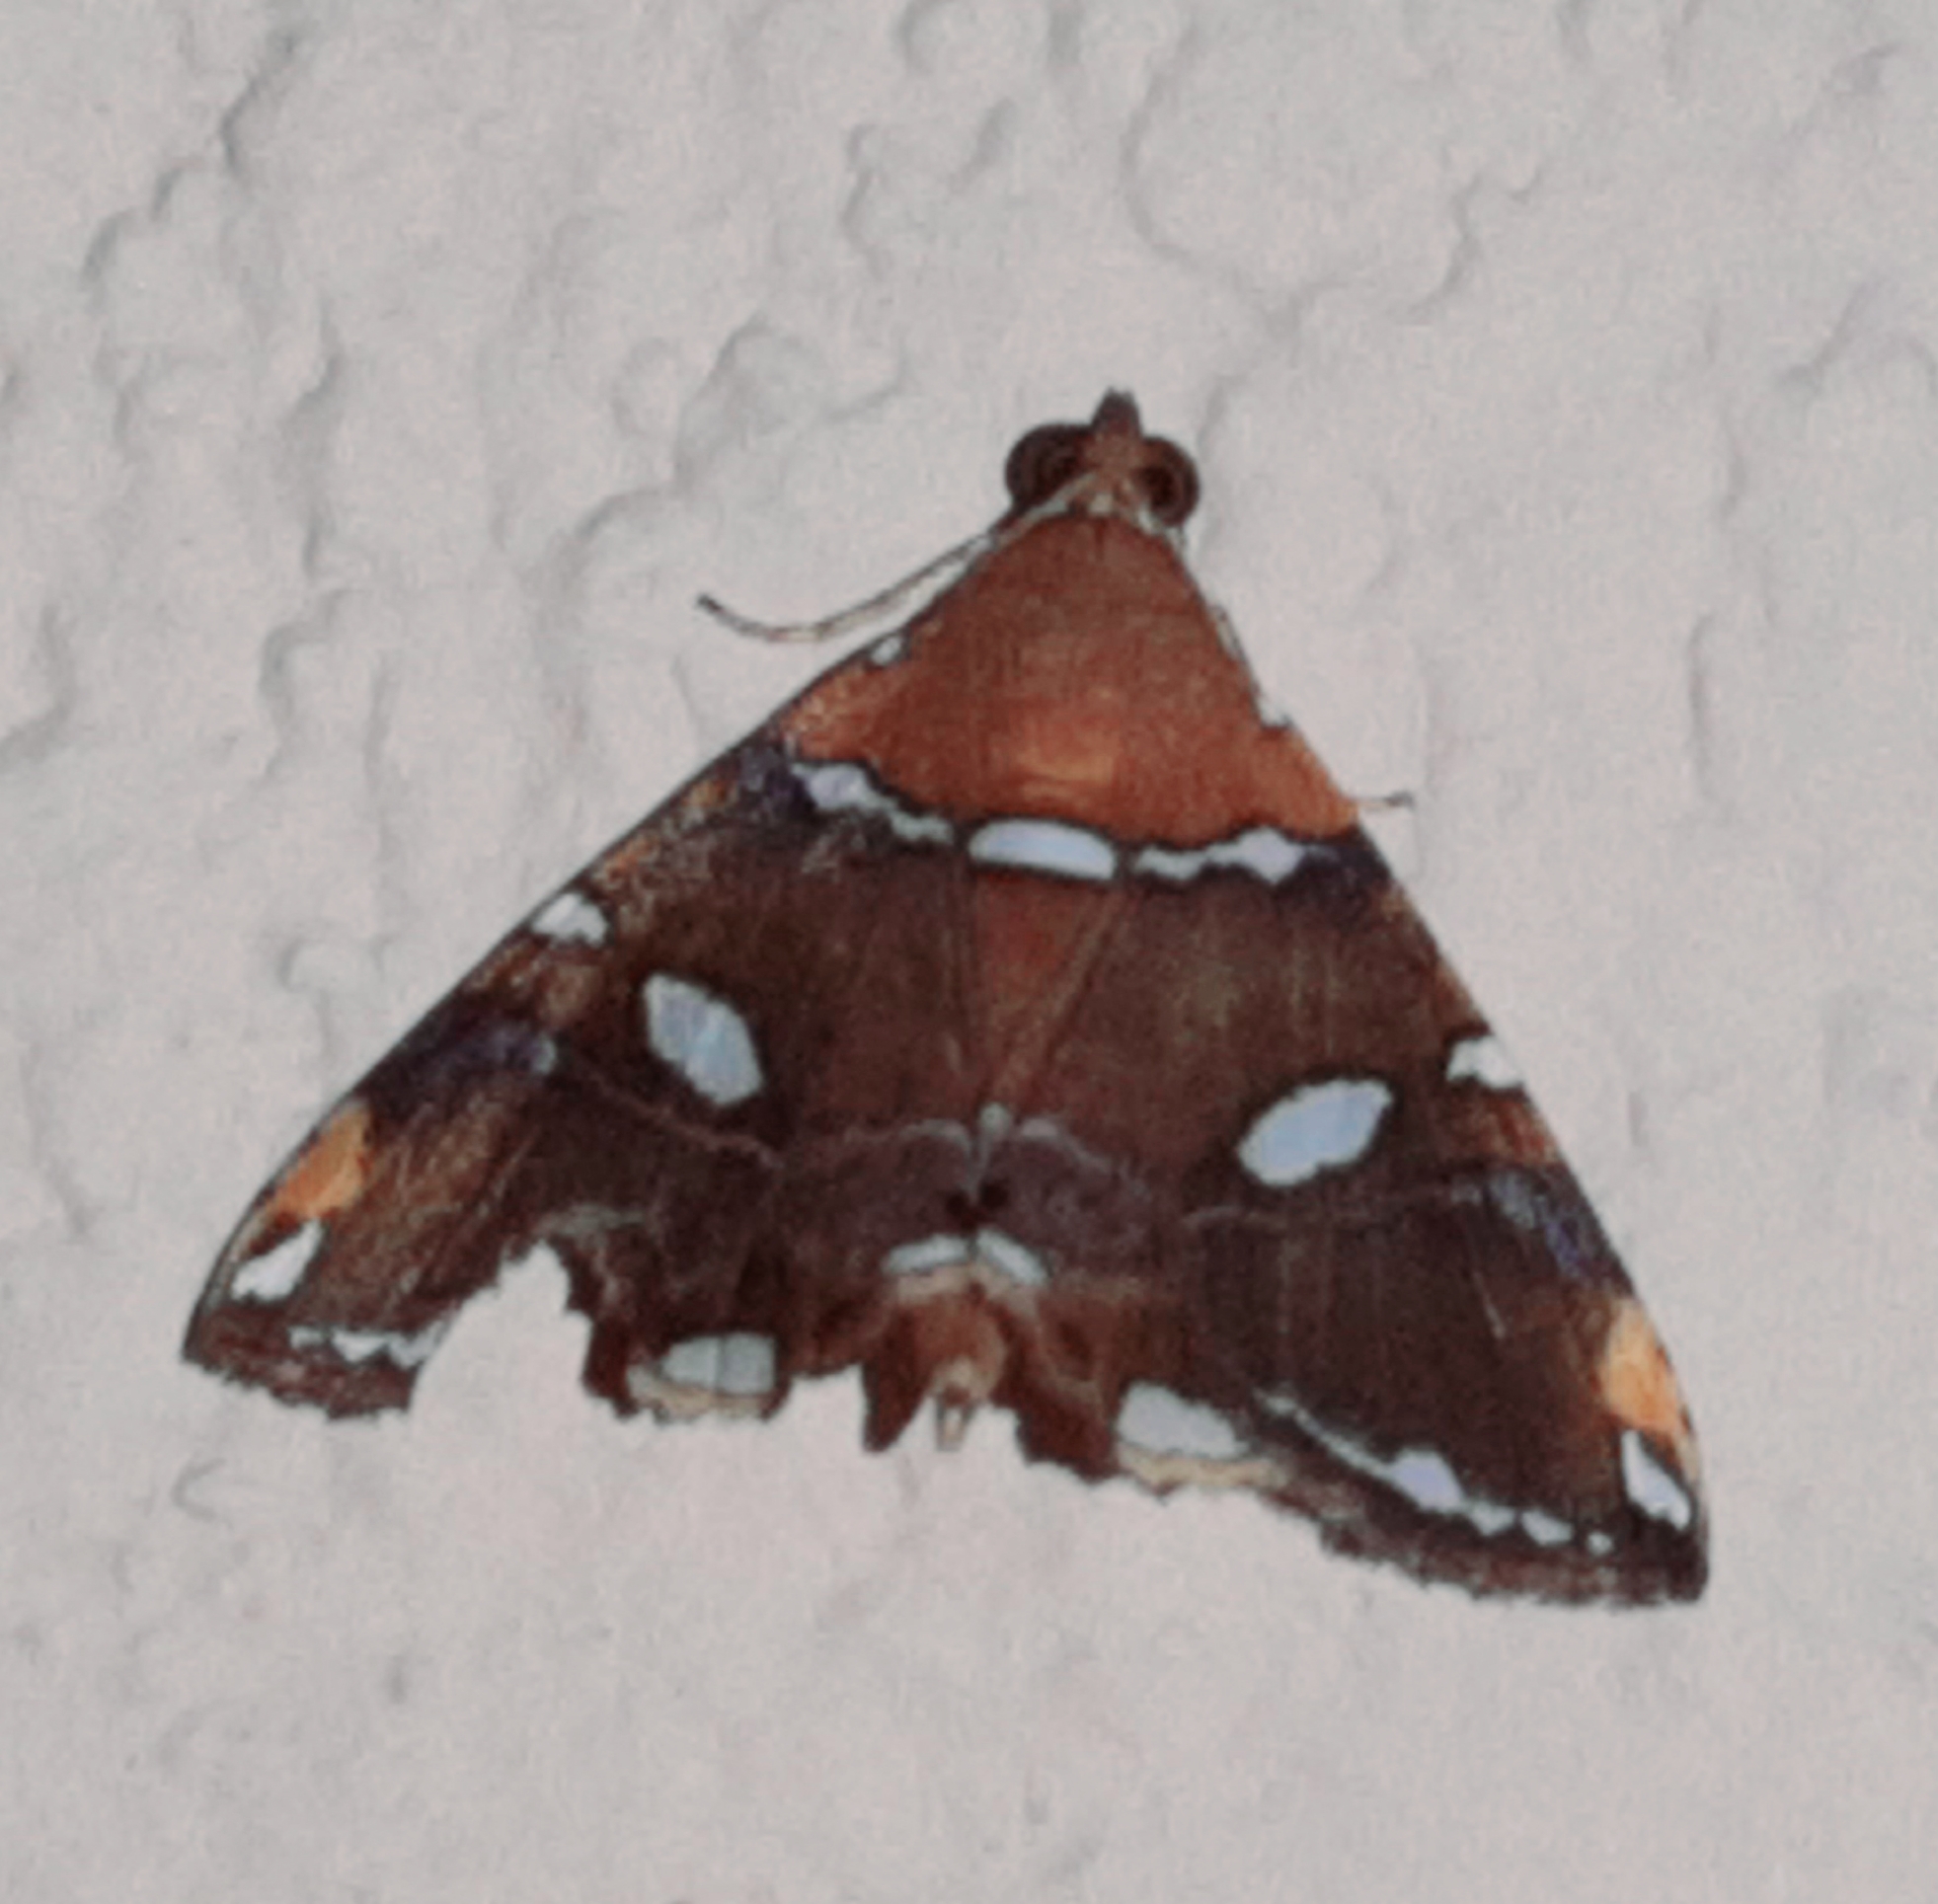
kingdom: Animalia
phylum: Arthropoda
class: Insecta
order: Lepidoptera
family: Erebidae
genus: Eulepidotis
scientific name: Eulepidotis guttata
